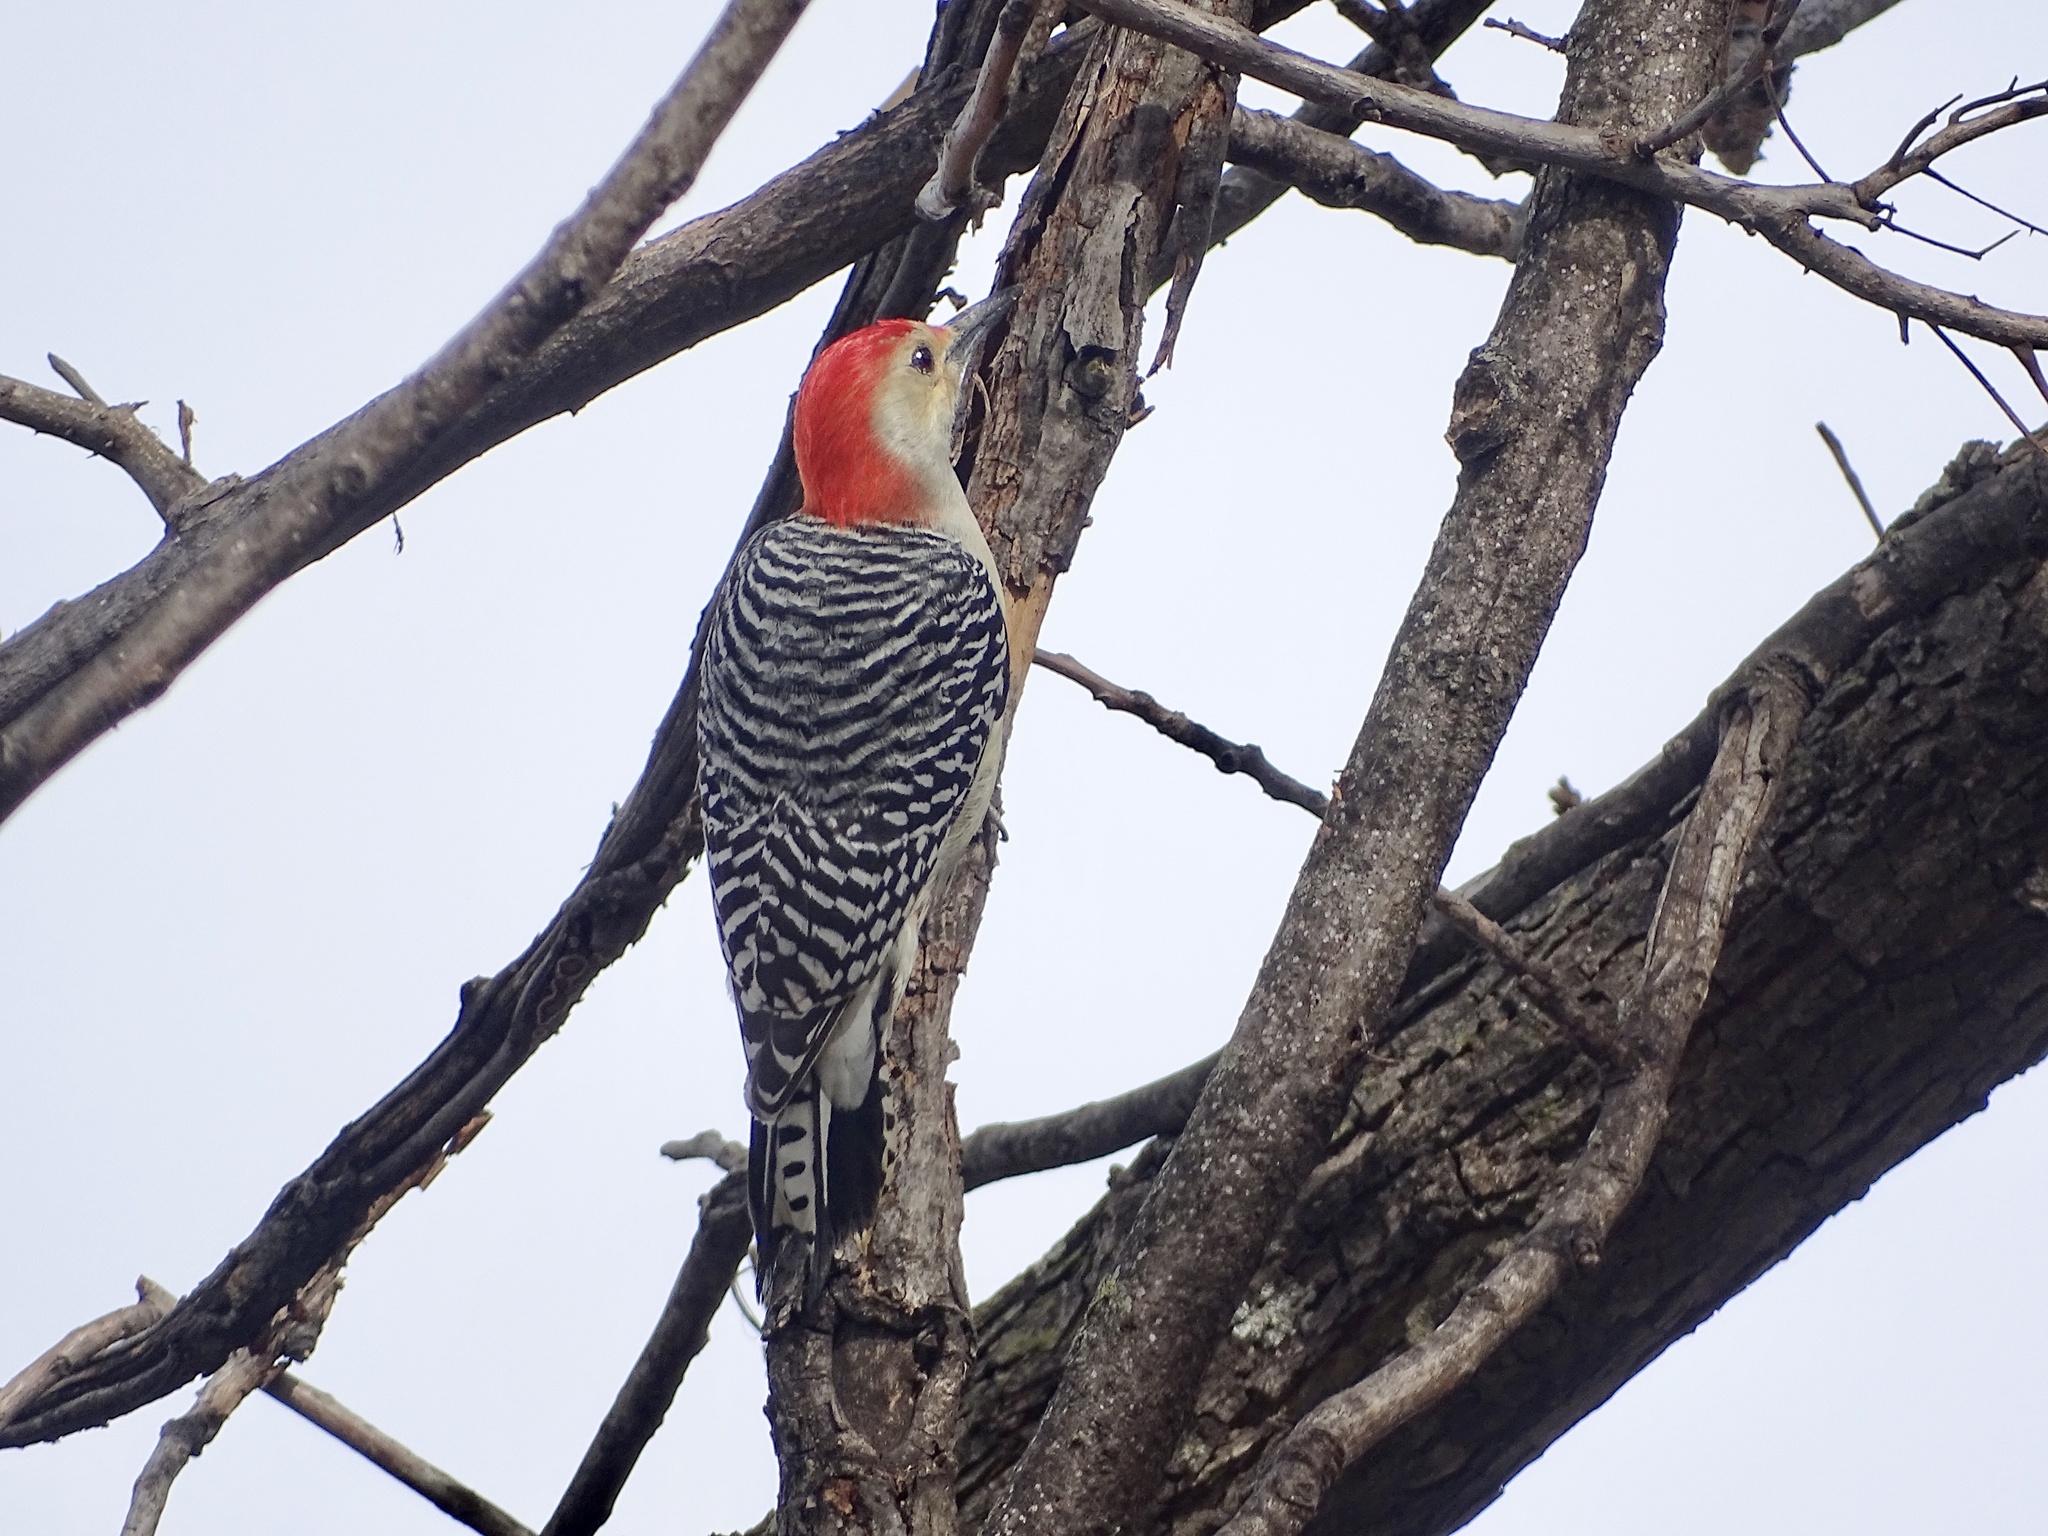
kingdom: Animalia
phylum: Chordata
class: Aves
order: Piciformes
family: Picidae
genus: Melanerpes
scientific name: Melanerpes carolinus
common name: Red-bellied woodpecker
